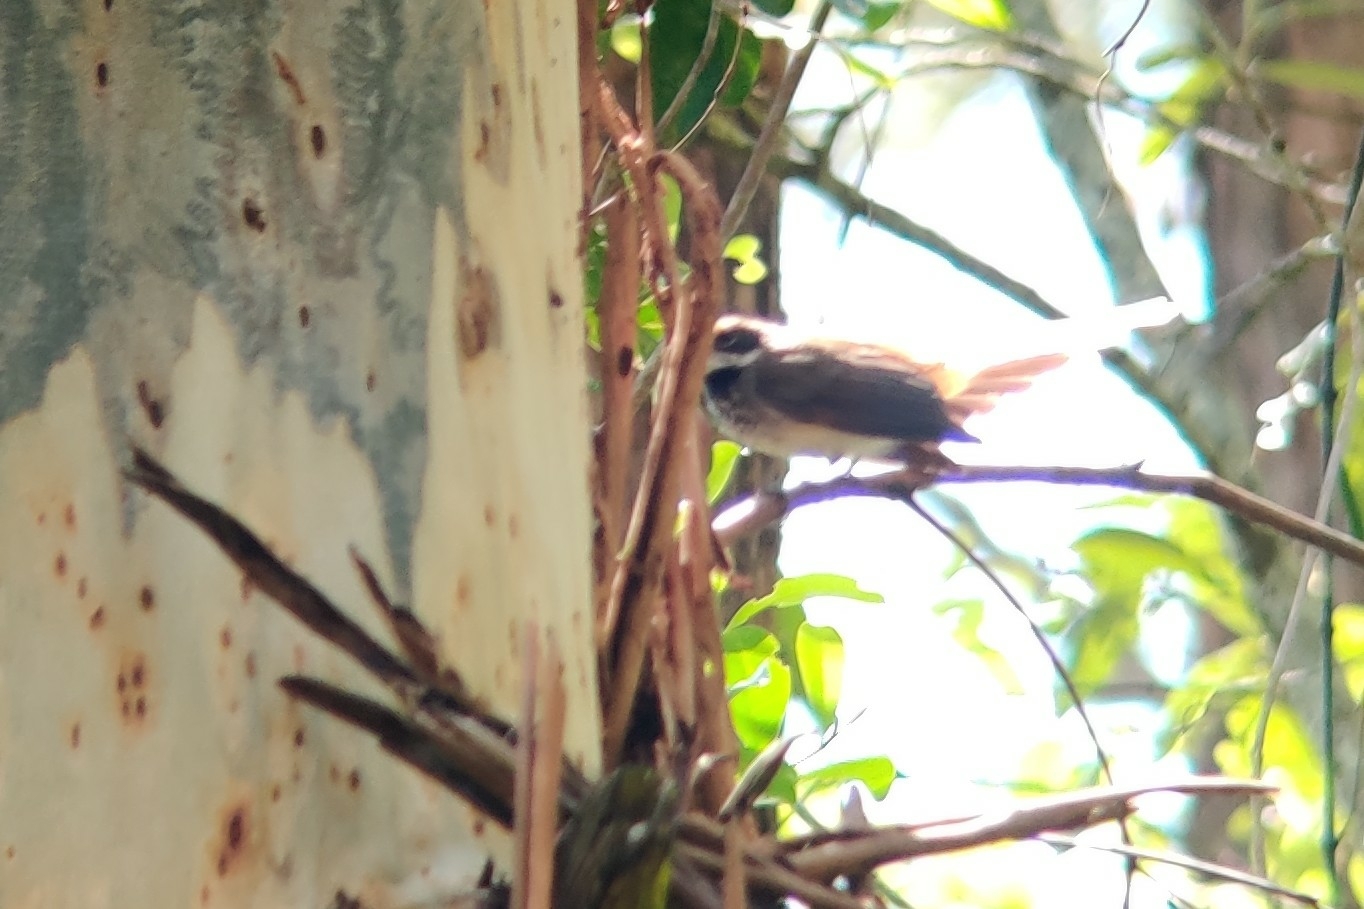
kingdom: Animalia
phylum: Chordata
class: Aves
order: Passeriformes
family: Rhipiduridae
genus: Rhipidura
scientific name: Rhipidura rufifrons
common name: Rufous fantail
